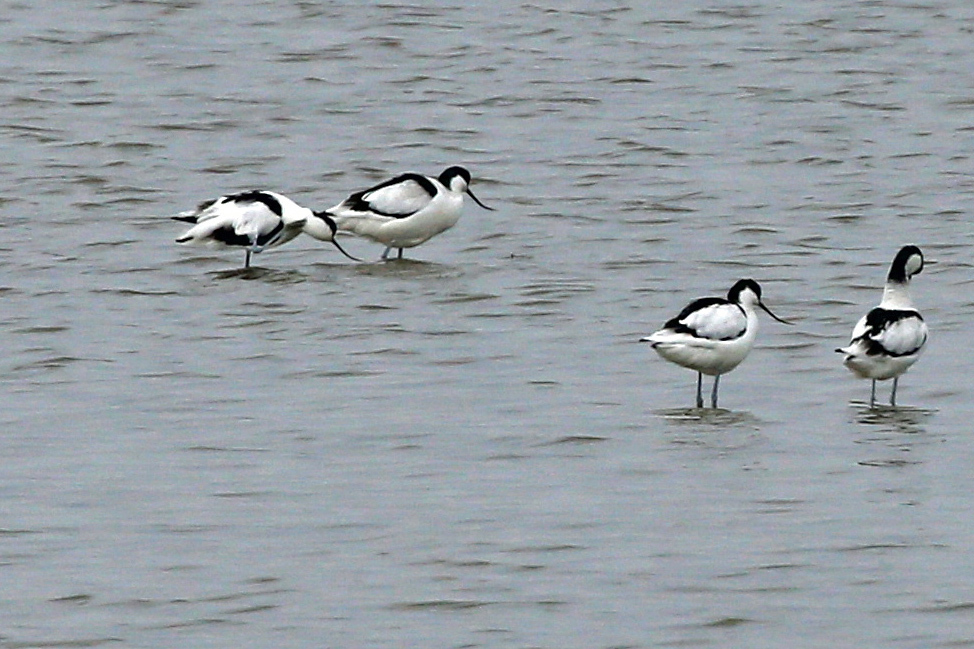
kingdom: Animalia
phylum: Chordata
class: Aves
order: Charadriiformes
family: Recurvirostridae
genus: Recurvirostra
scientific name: Recurvirostra avosetta
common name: Pied avocet
